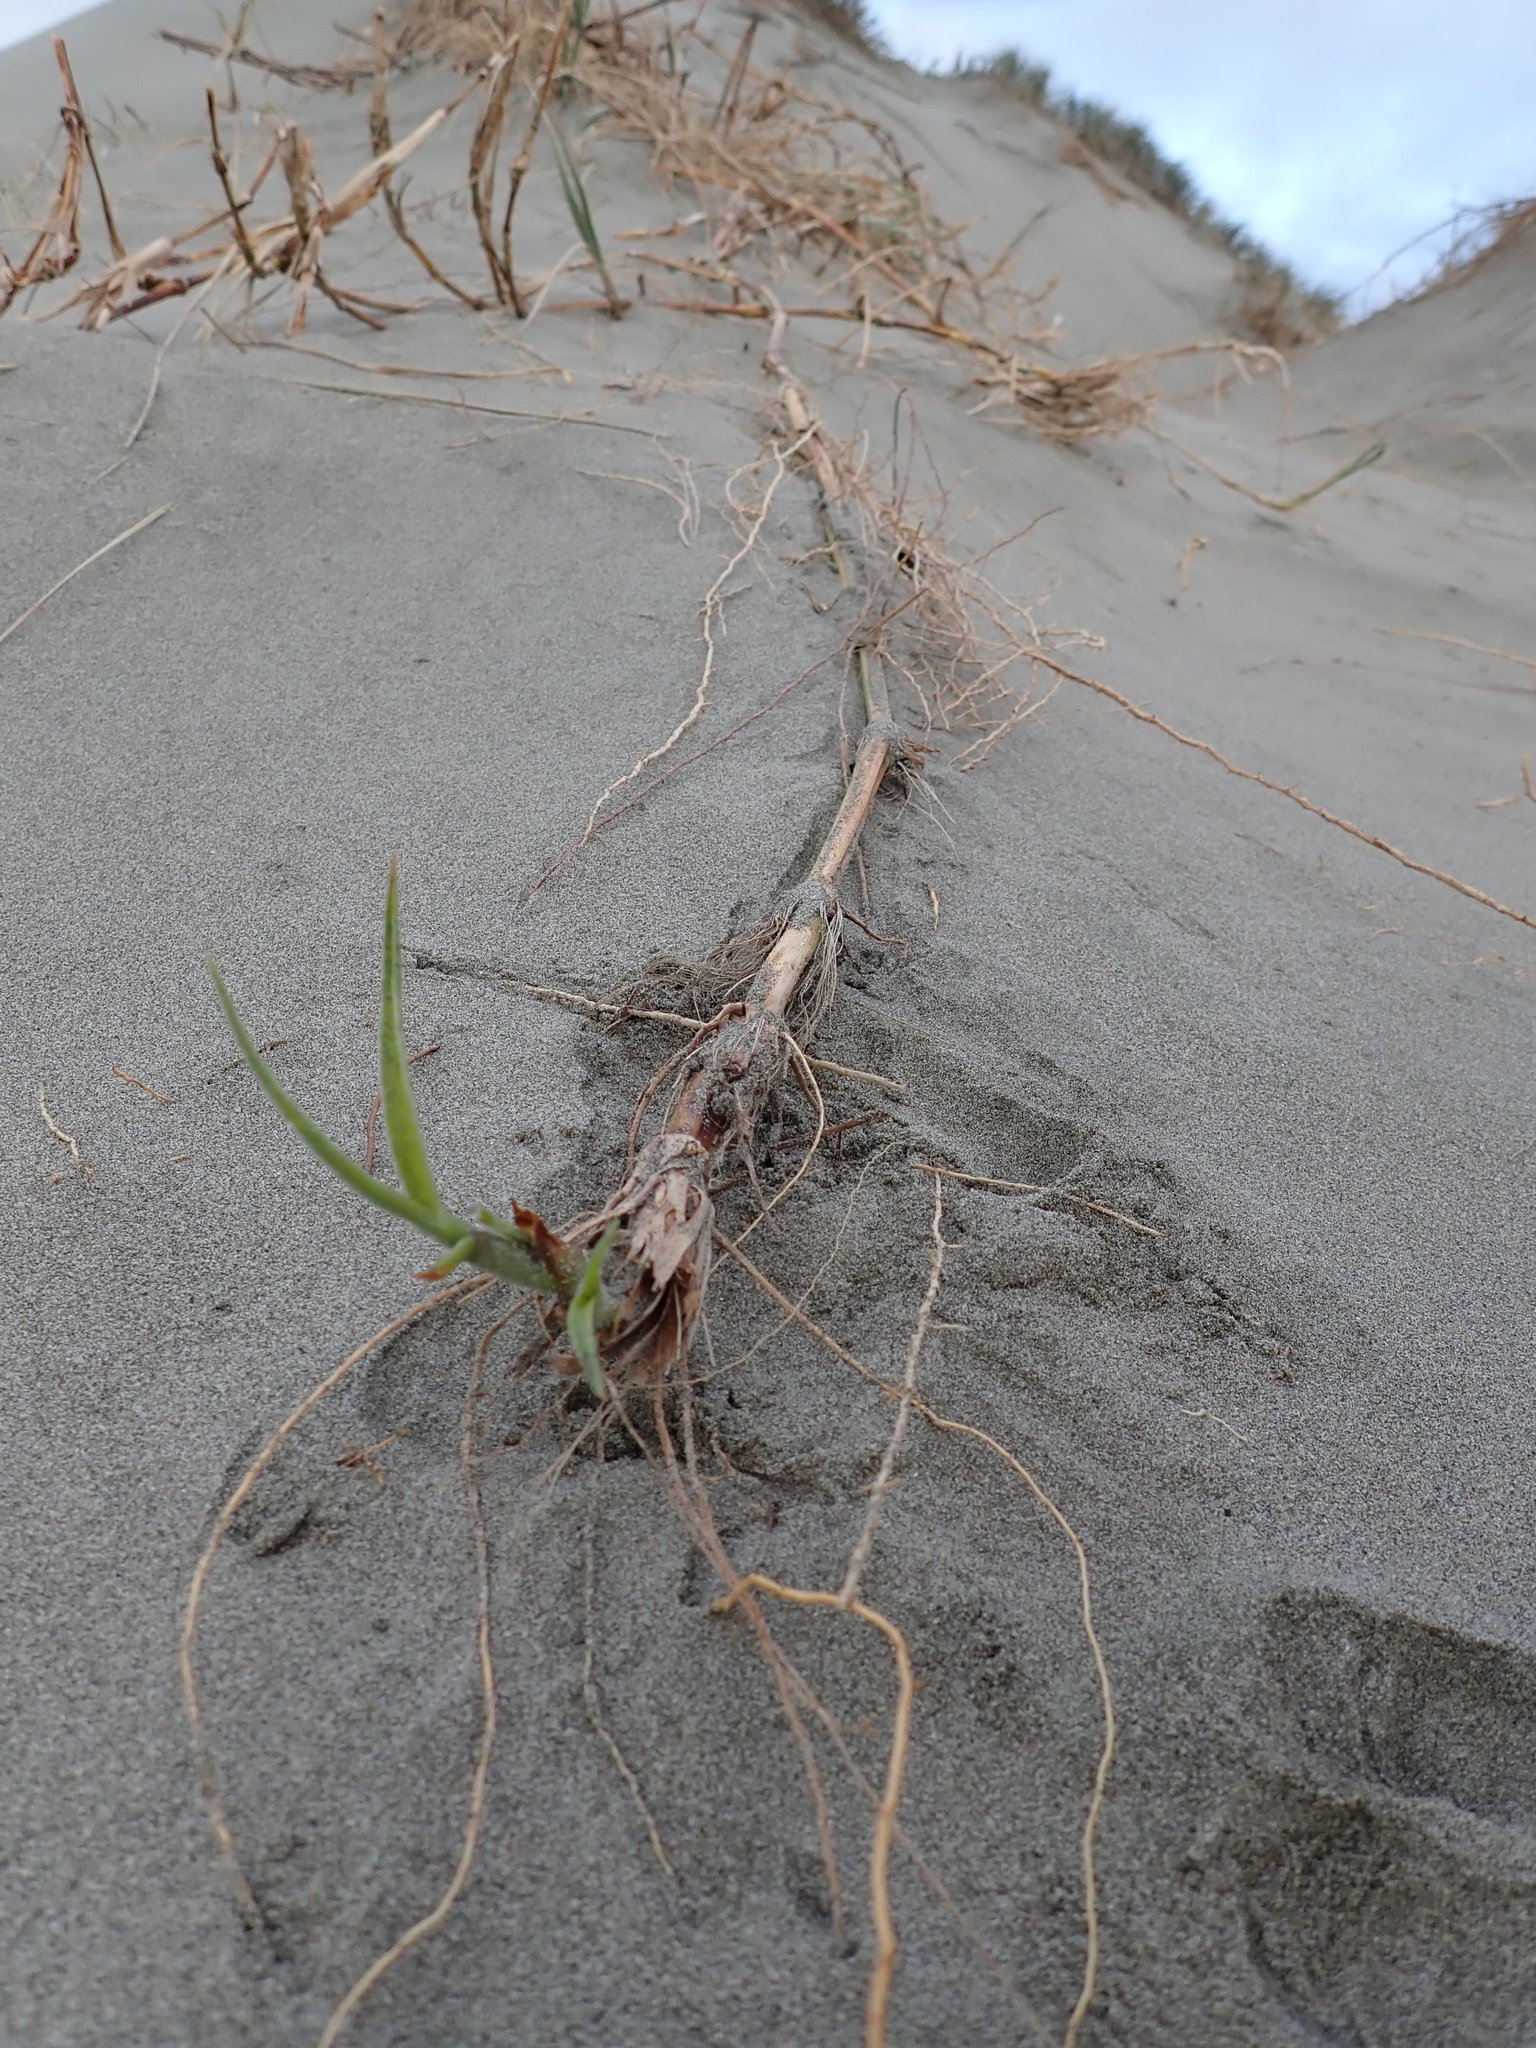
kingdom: Plantae
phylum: Tracheophyta
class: Liliopsida
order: Poales
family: Poaceae
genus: Spinifex
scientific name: Spinifex sericeus
